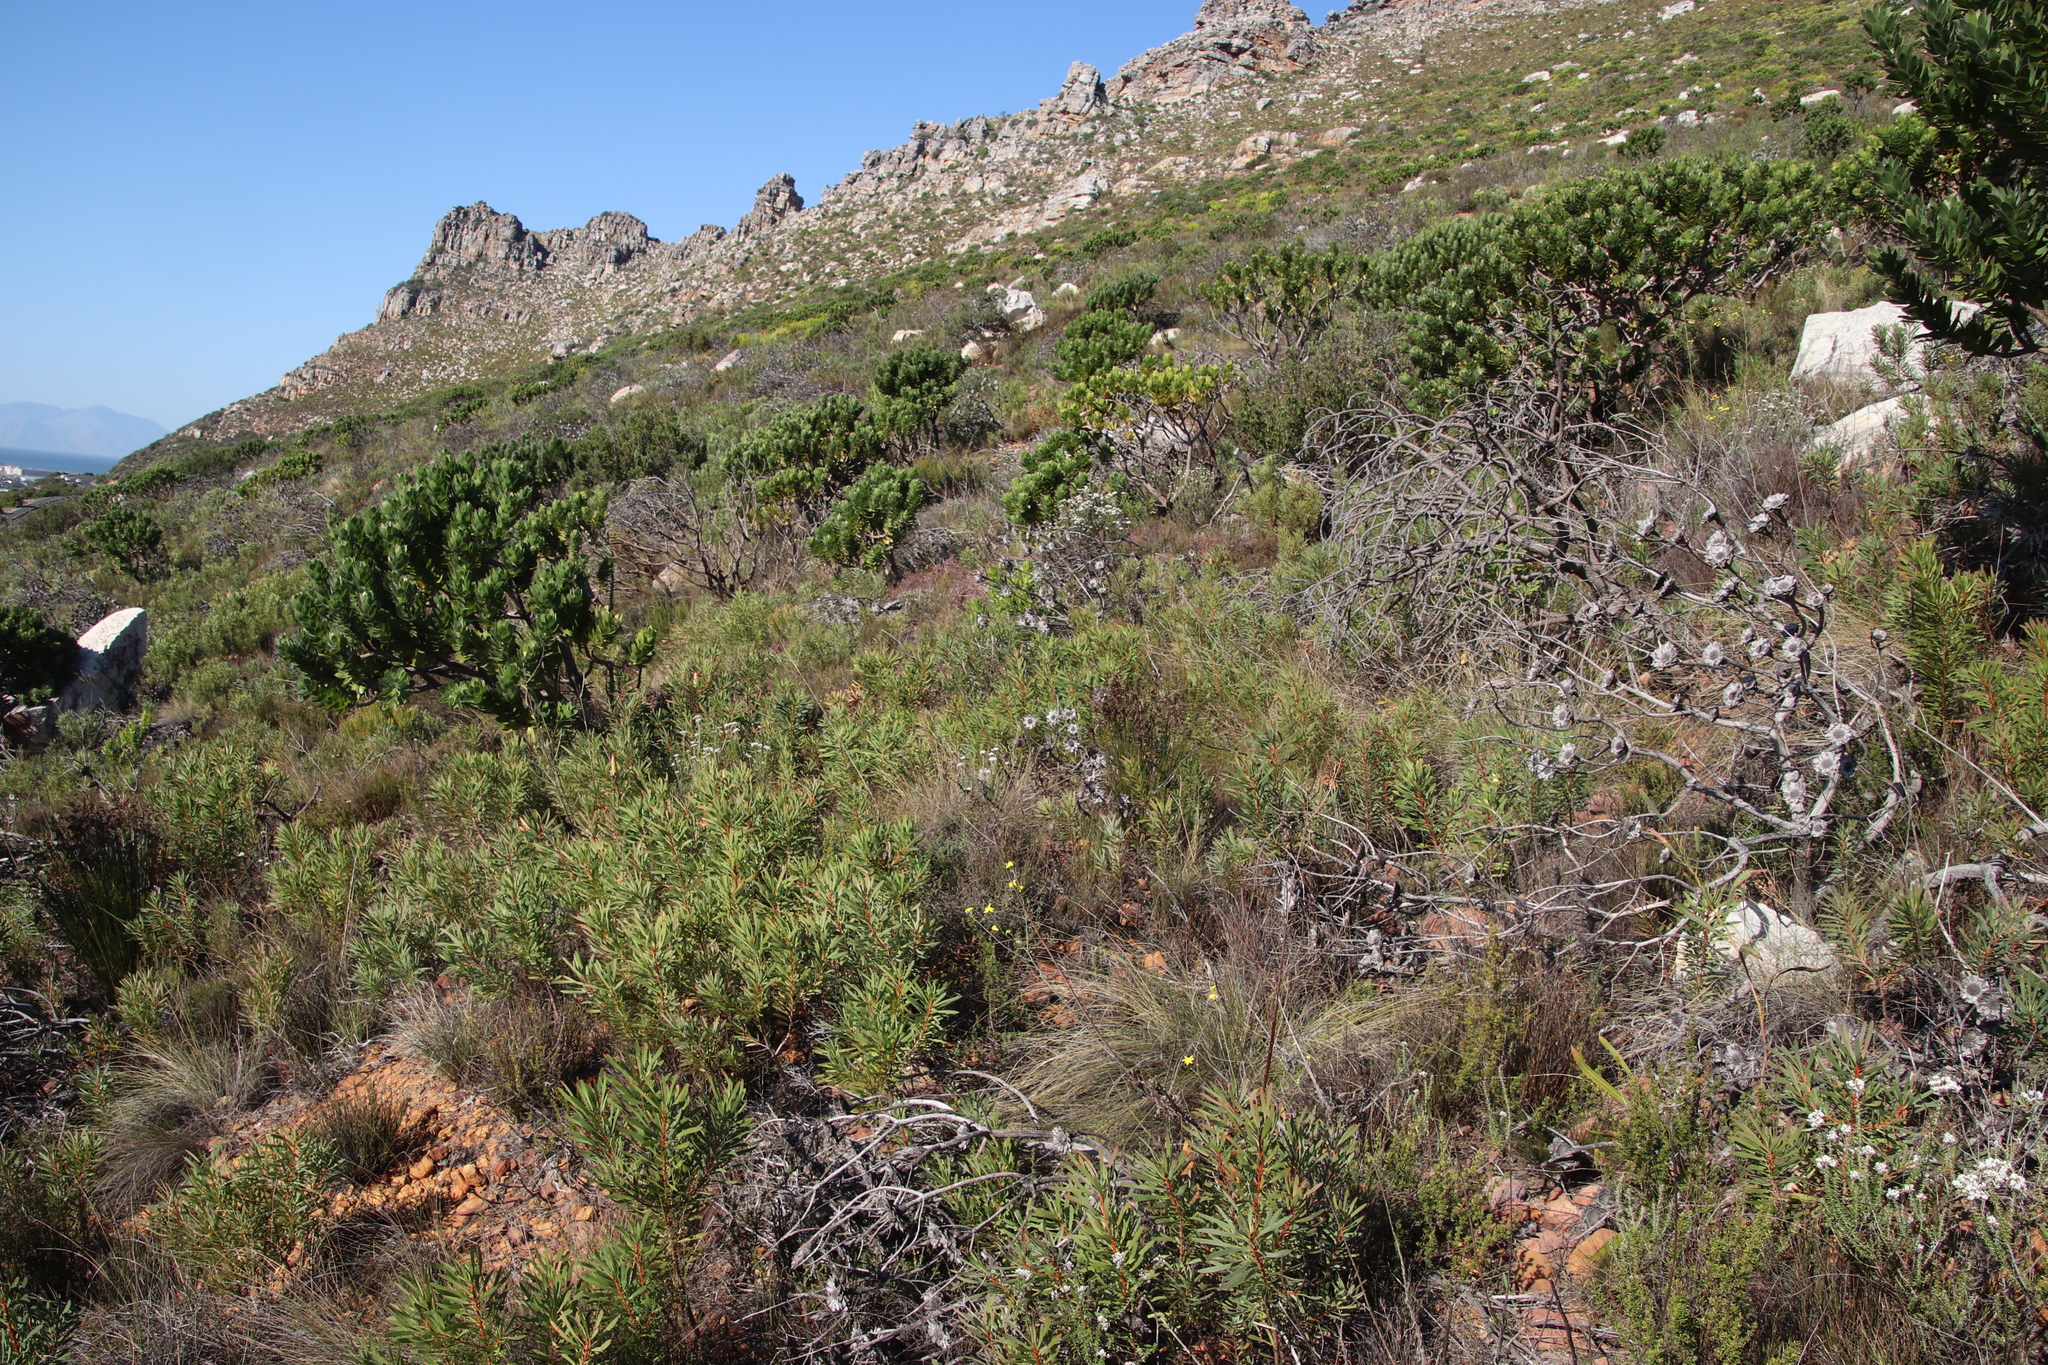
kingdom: Plantae
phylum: Tracheophyta
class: Magnoliopsida
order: Proteales
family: Proteaceae
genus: Protea
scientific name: Protea repens
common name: Sugarbush
